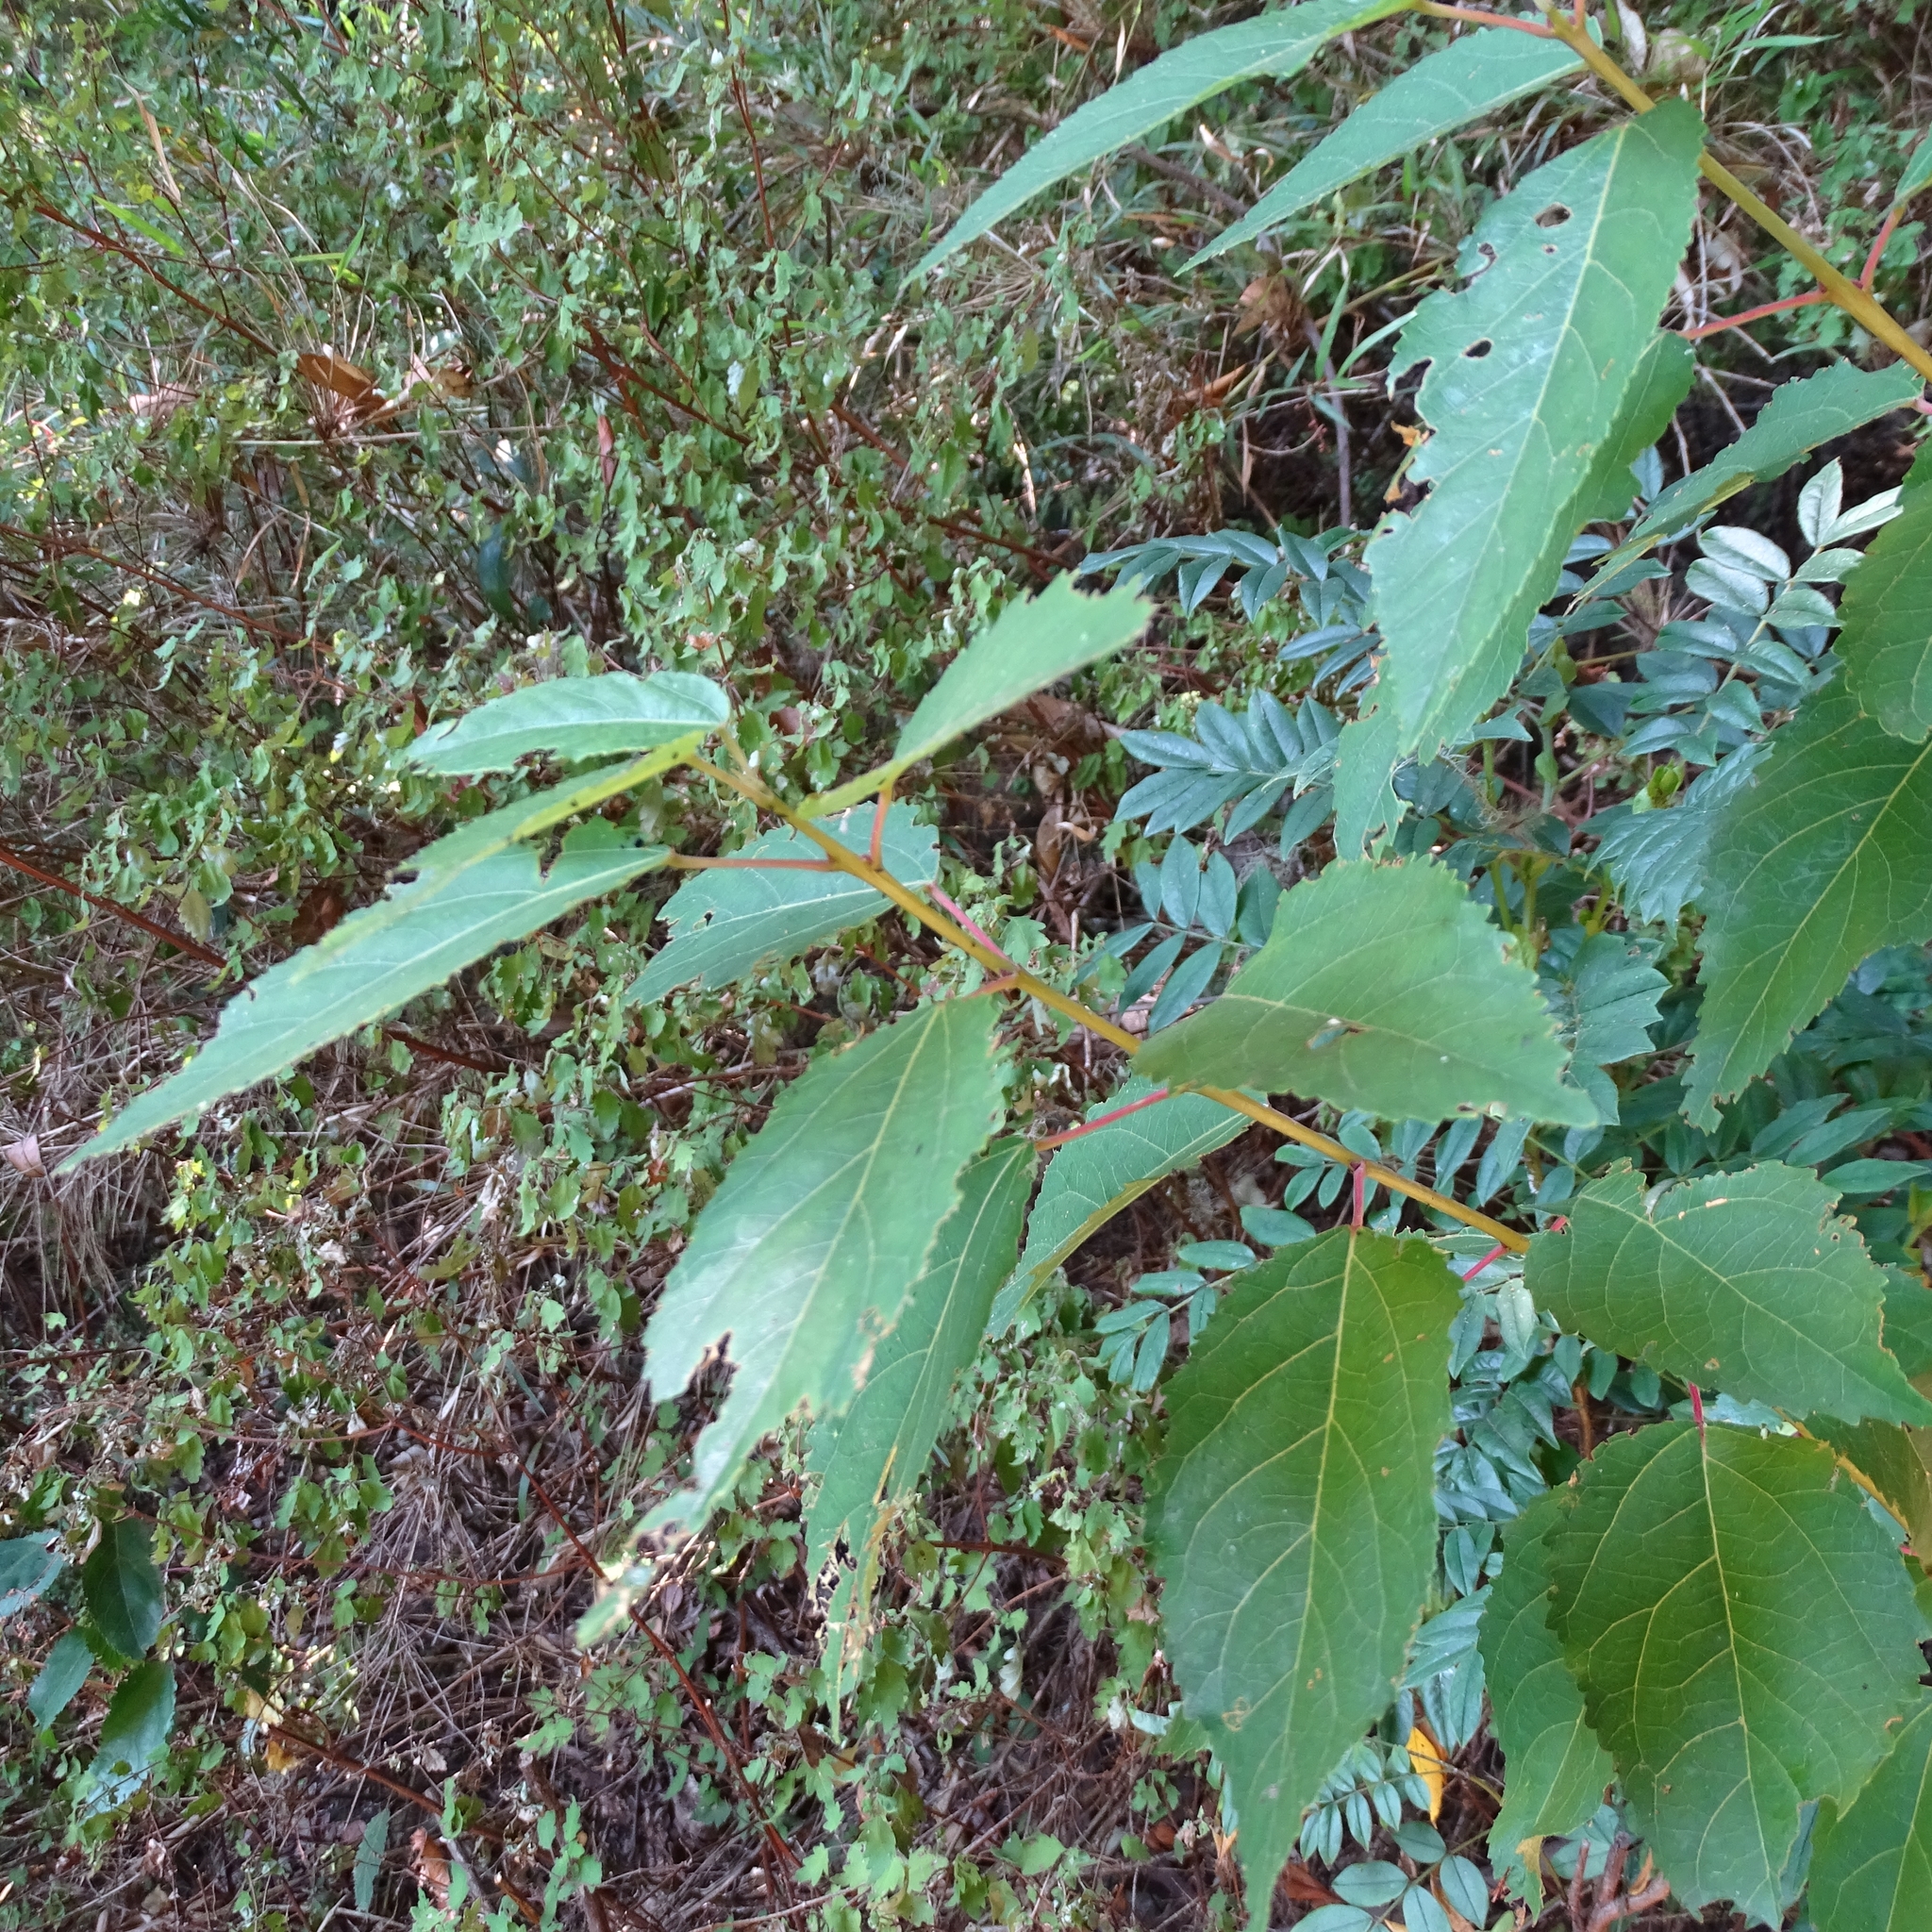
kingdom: Plantae
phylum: Tracheophyta
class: Magnoliopsida
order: Oxalidales
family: Elaeocarpaceae
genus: Aristotelia
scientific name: Aristotelia chilensis
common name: Maquei
